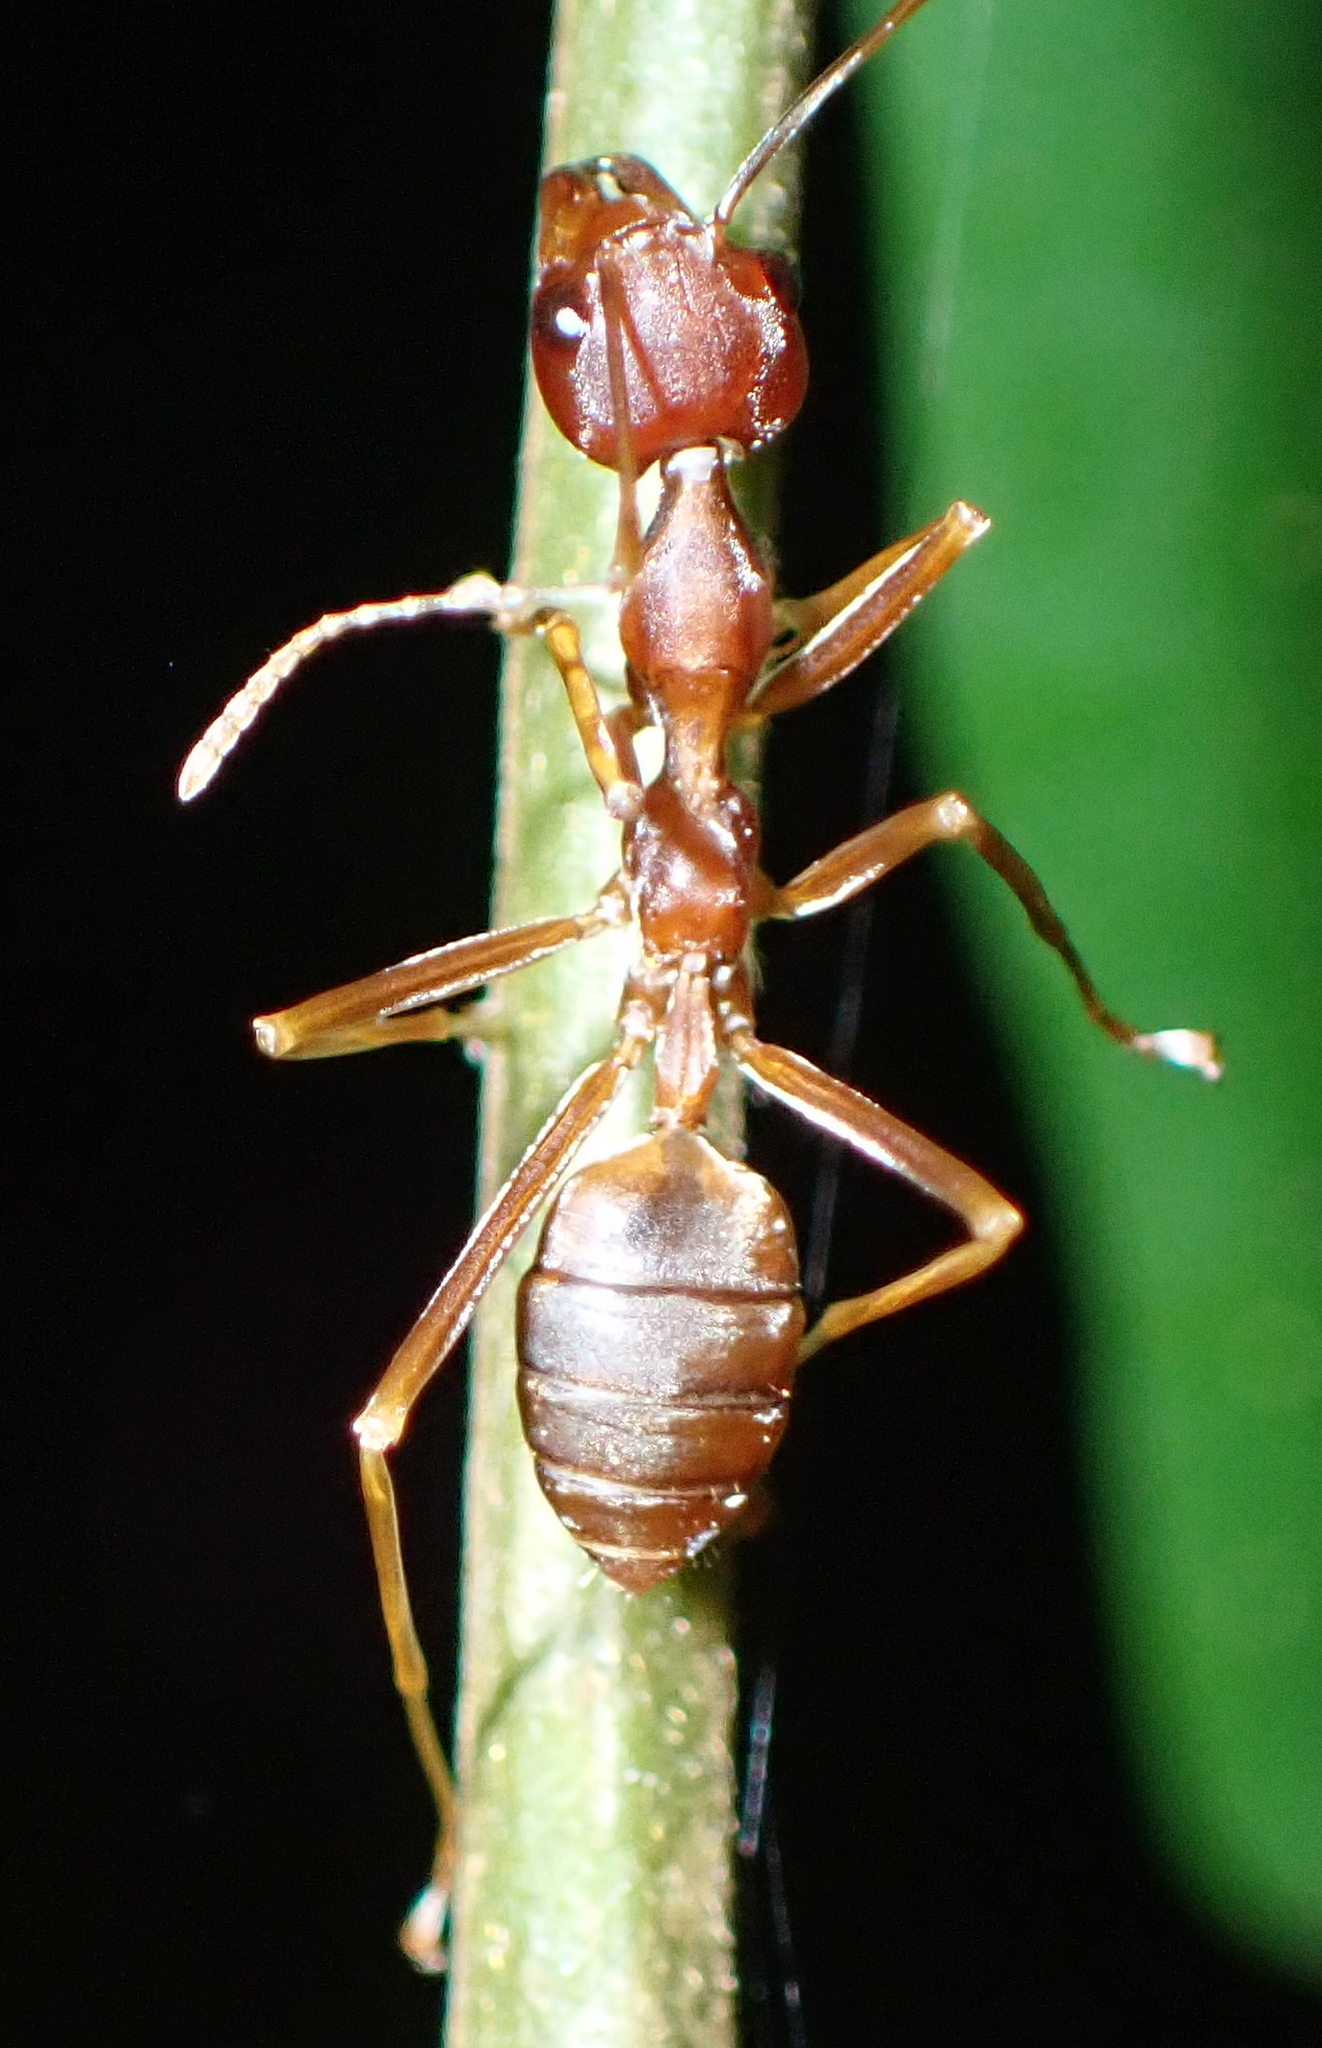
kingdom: Animalia
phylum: Arthropoda
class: Insecta
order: Hymenoptera
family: Formicidae
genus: Oecophylla
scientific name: Oecophylla longinoda
